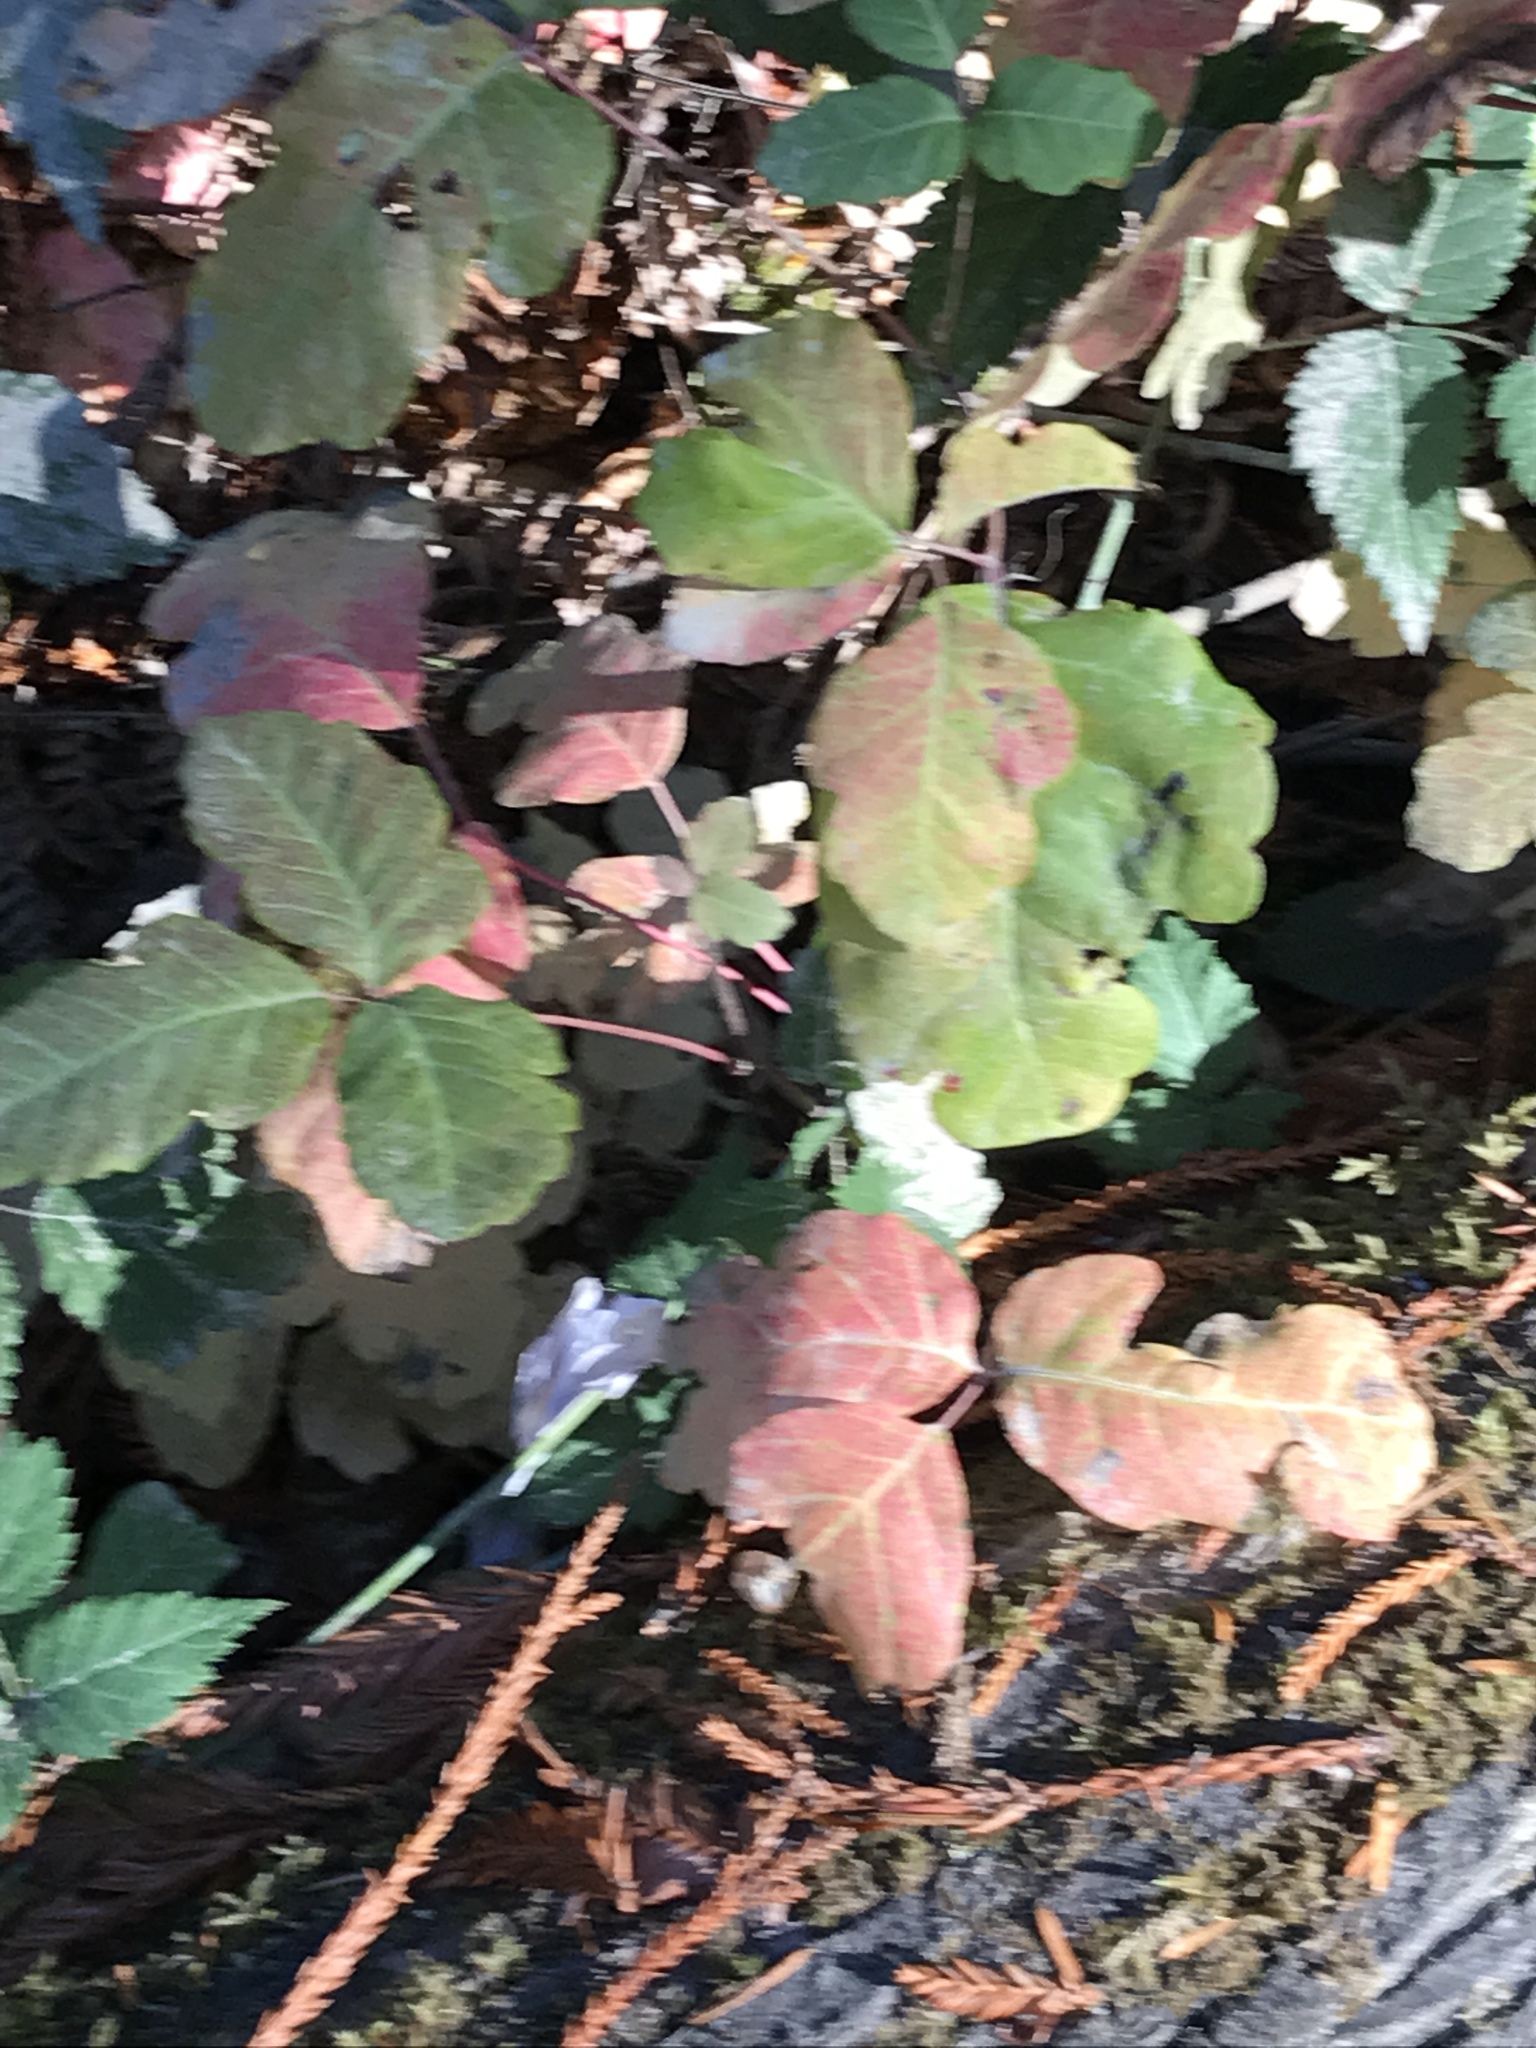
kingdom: Plantae
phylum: Tracheophyta
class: Magnoliopsida
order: Sapindales
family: Anacardiaceae
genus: Toxicodendron
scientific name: Toxicodendron diversilobum
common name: Pacific poison-oak
